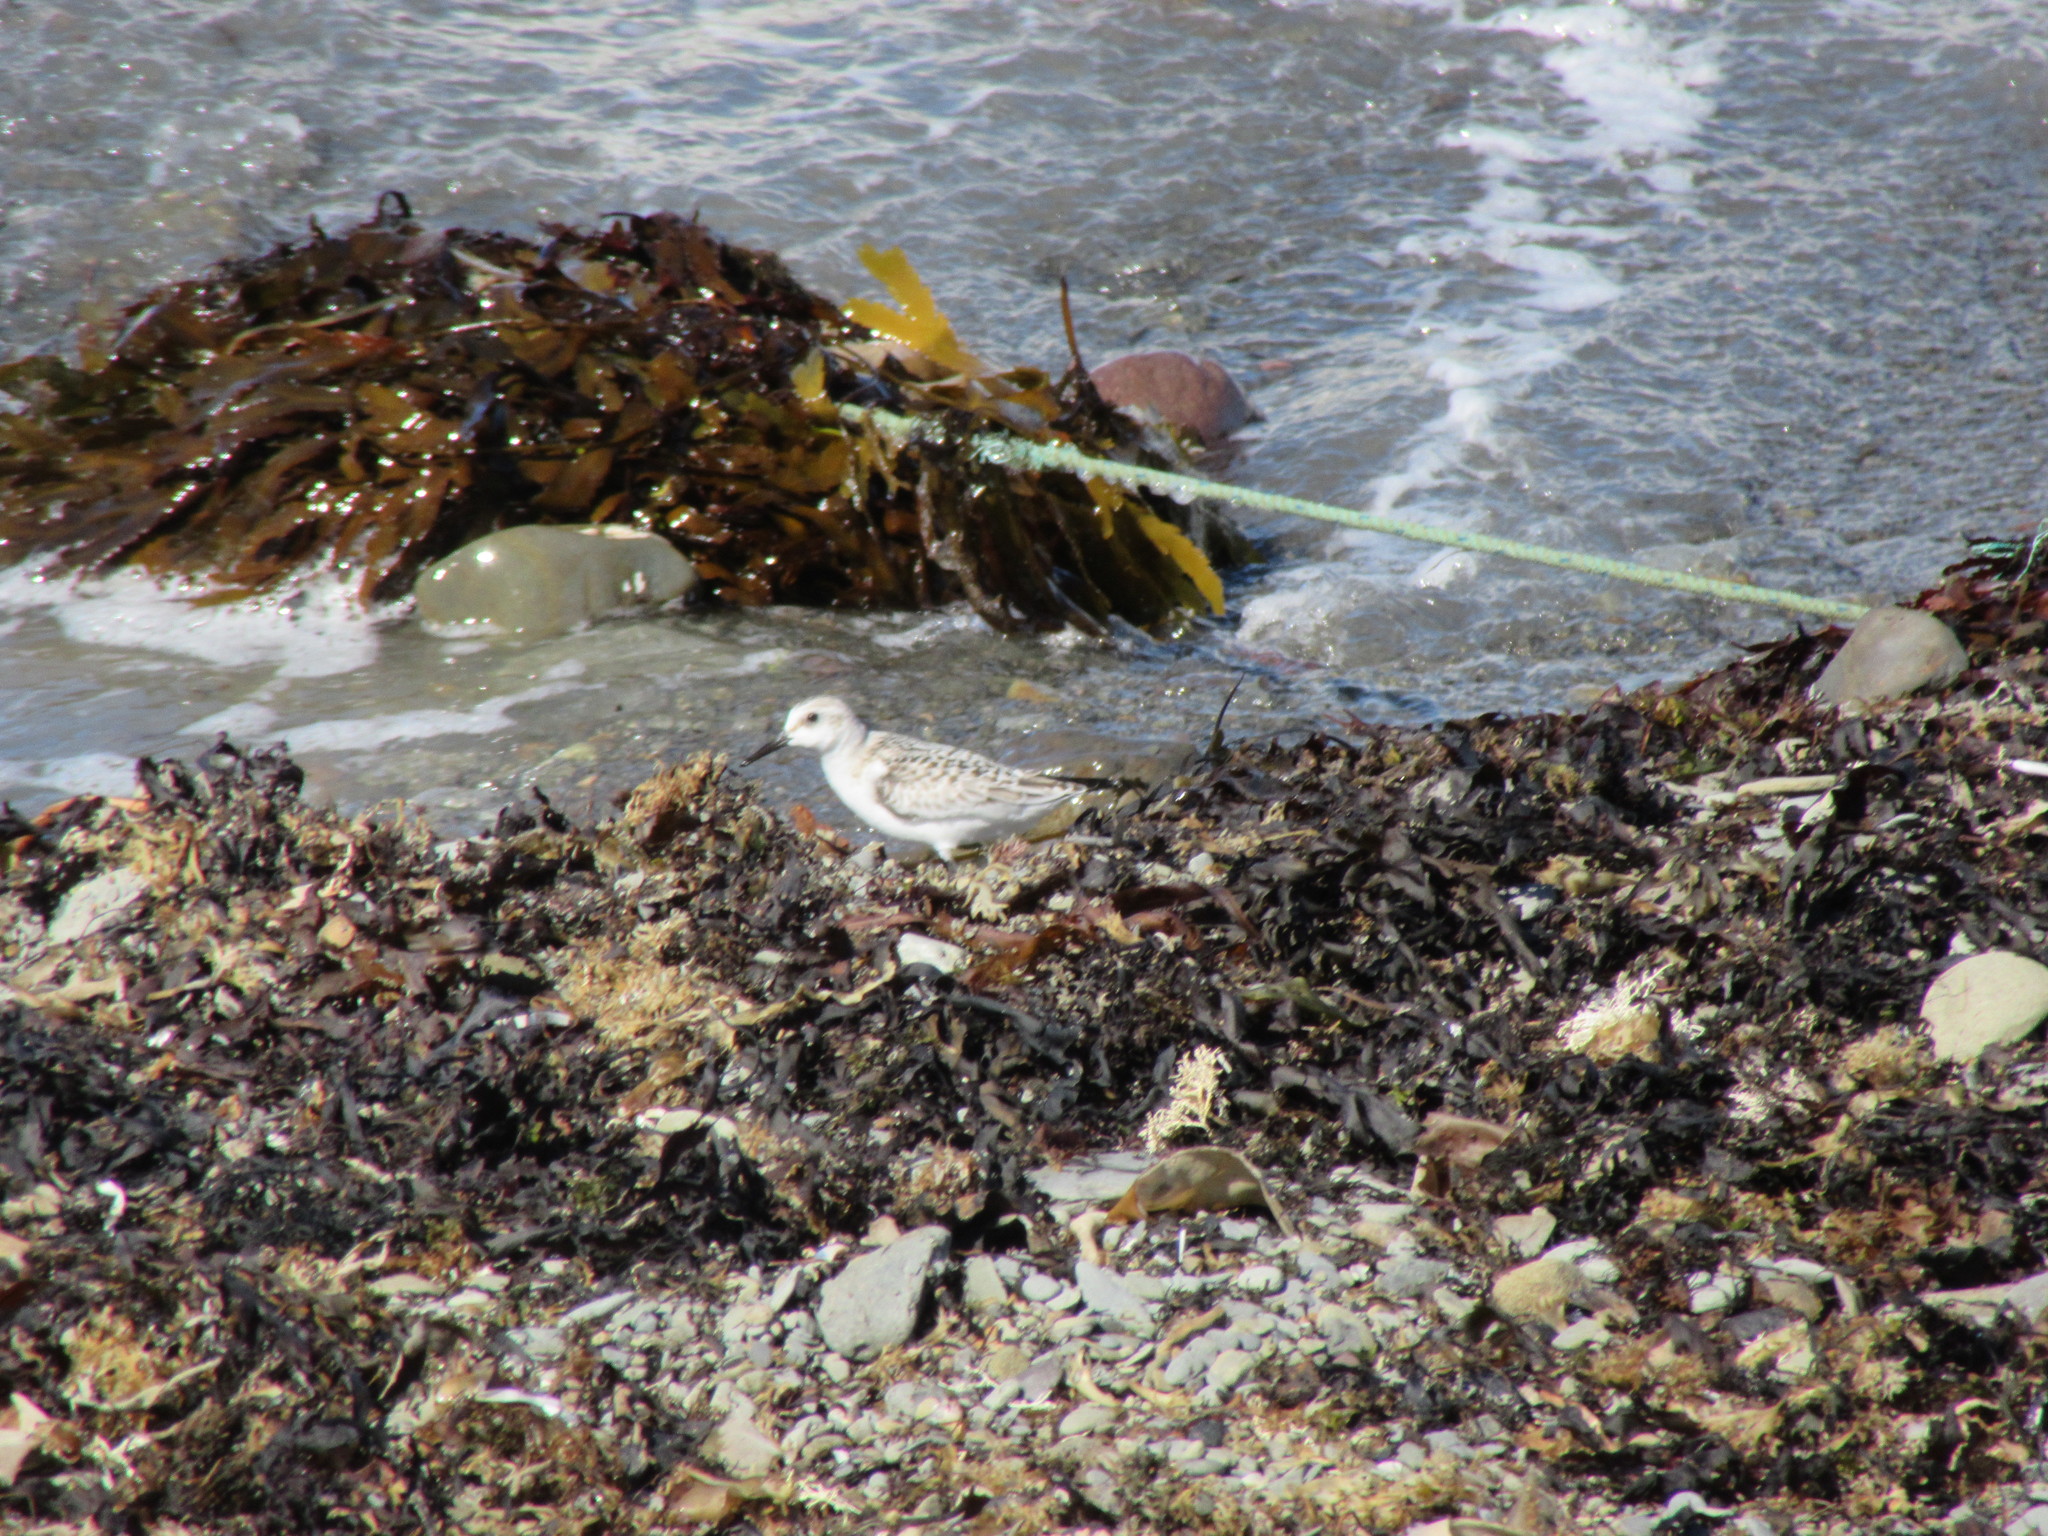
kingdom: Animalia
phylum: Chordata
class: Aves
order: Charadriiformes
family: Scolopacidae
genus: Calidris
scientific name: Calidris alba
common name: Sanderling
